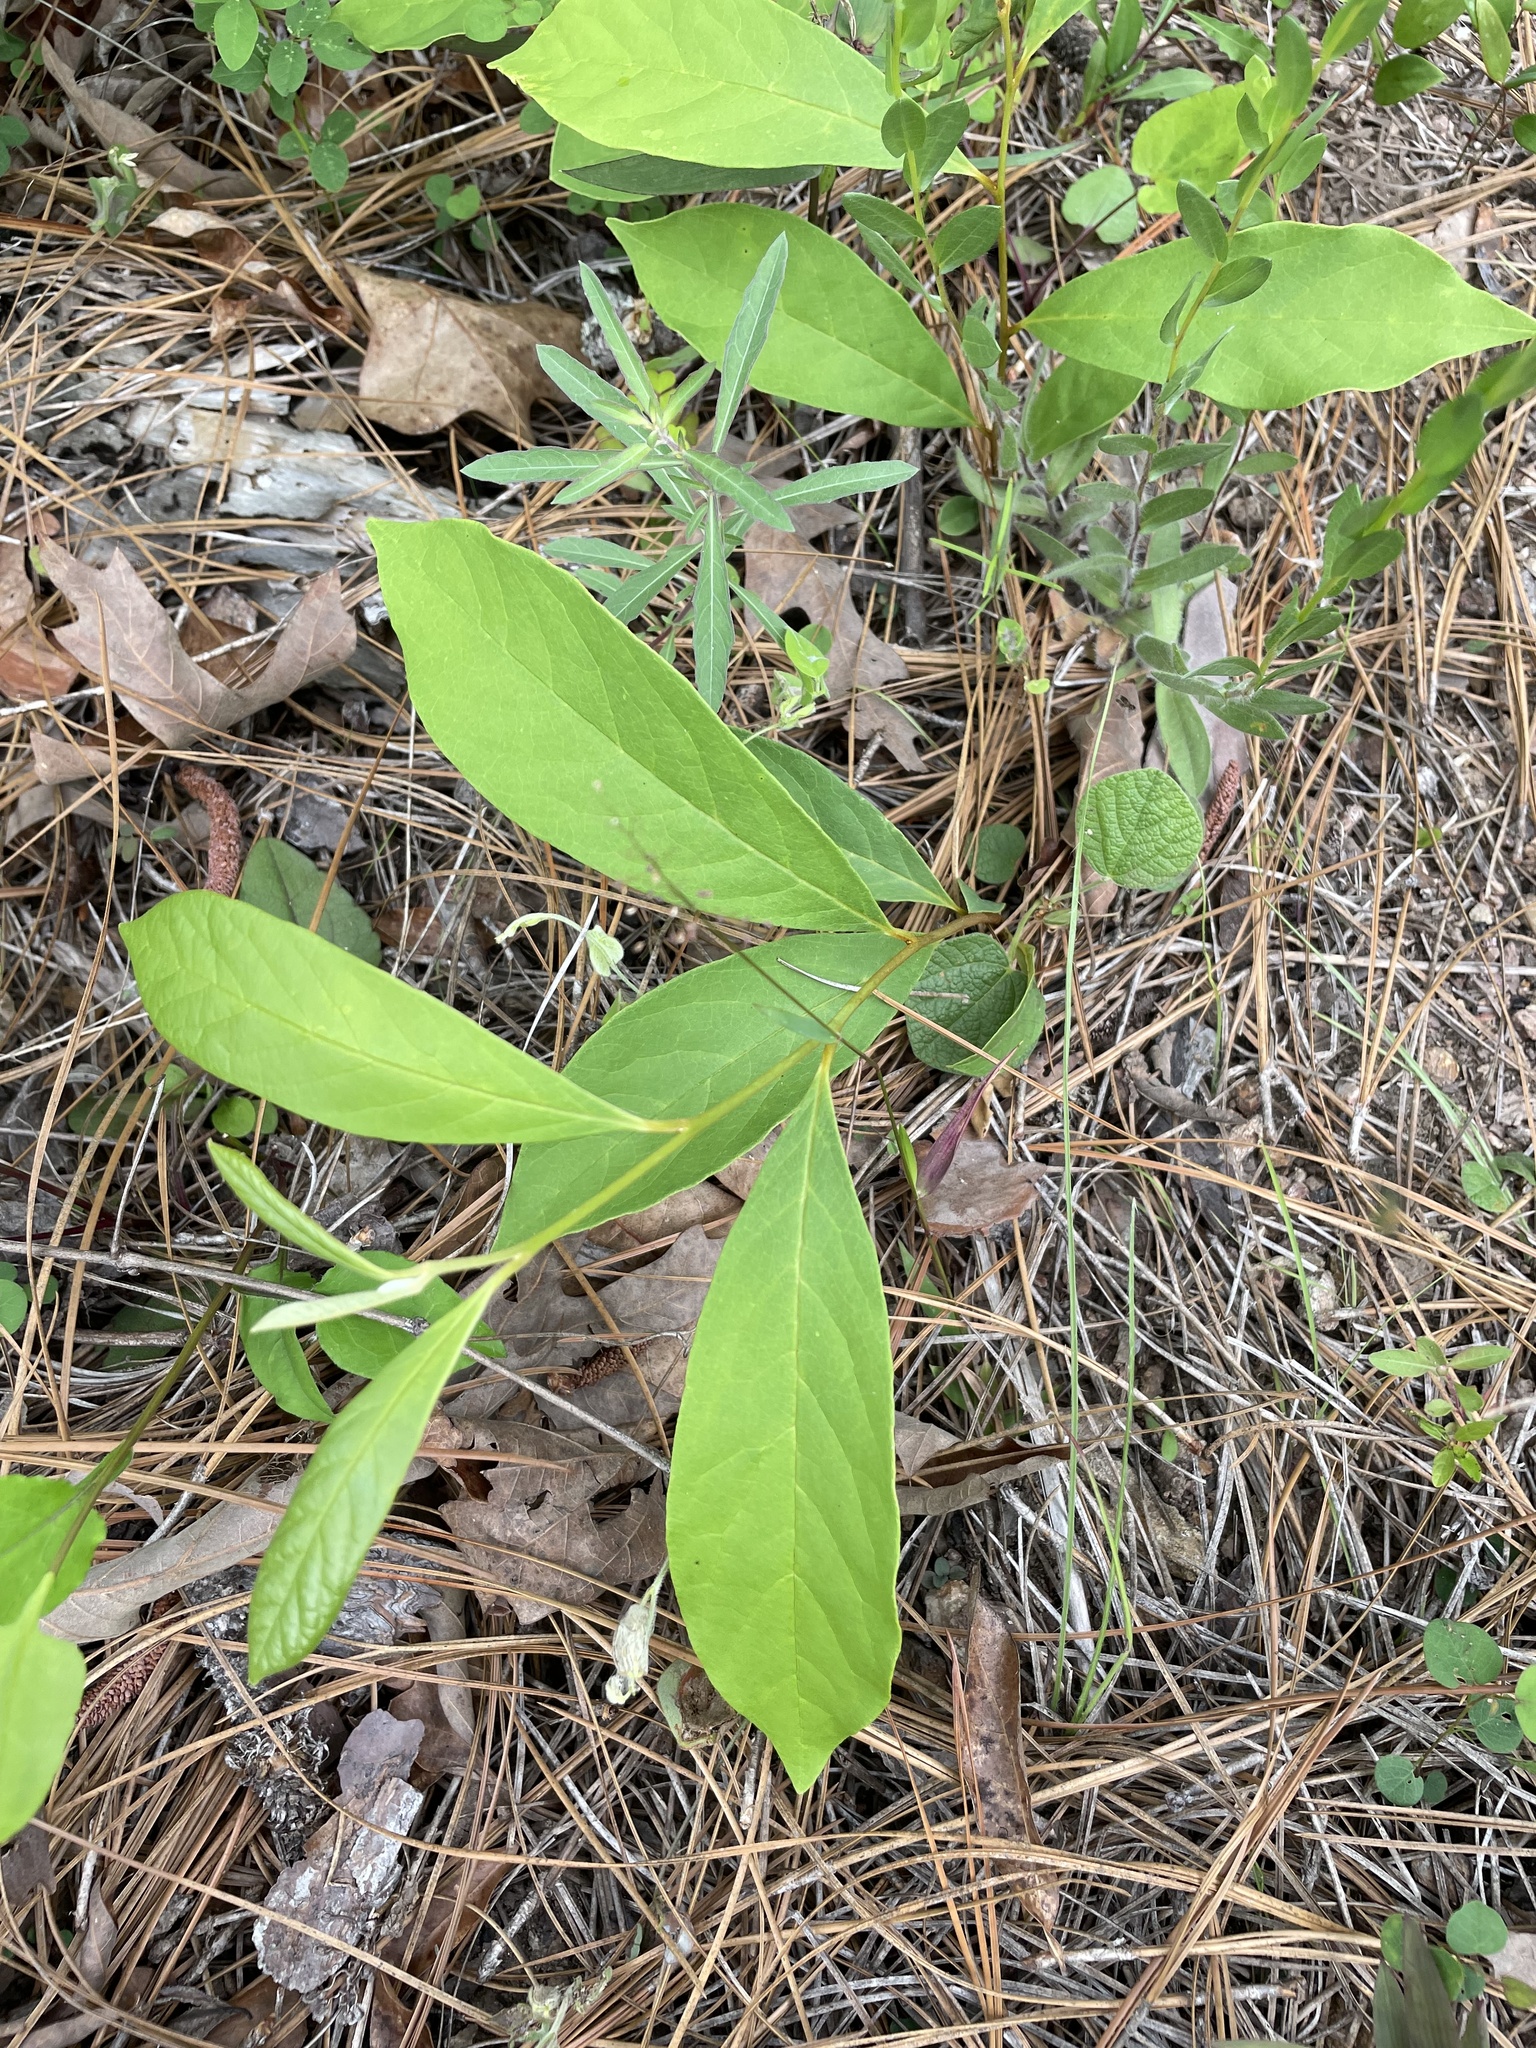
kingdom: Plantae
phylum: Tracheophyta
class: Magnoliopsida
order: Magnoliales
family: Annonaceae
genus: Asimina
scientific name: Asimina parviflora
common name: Dwarf pawpaw
